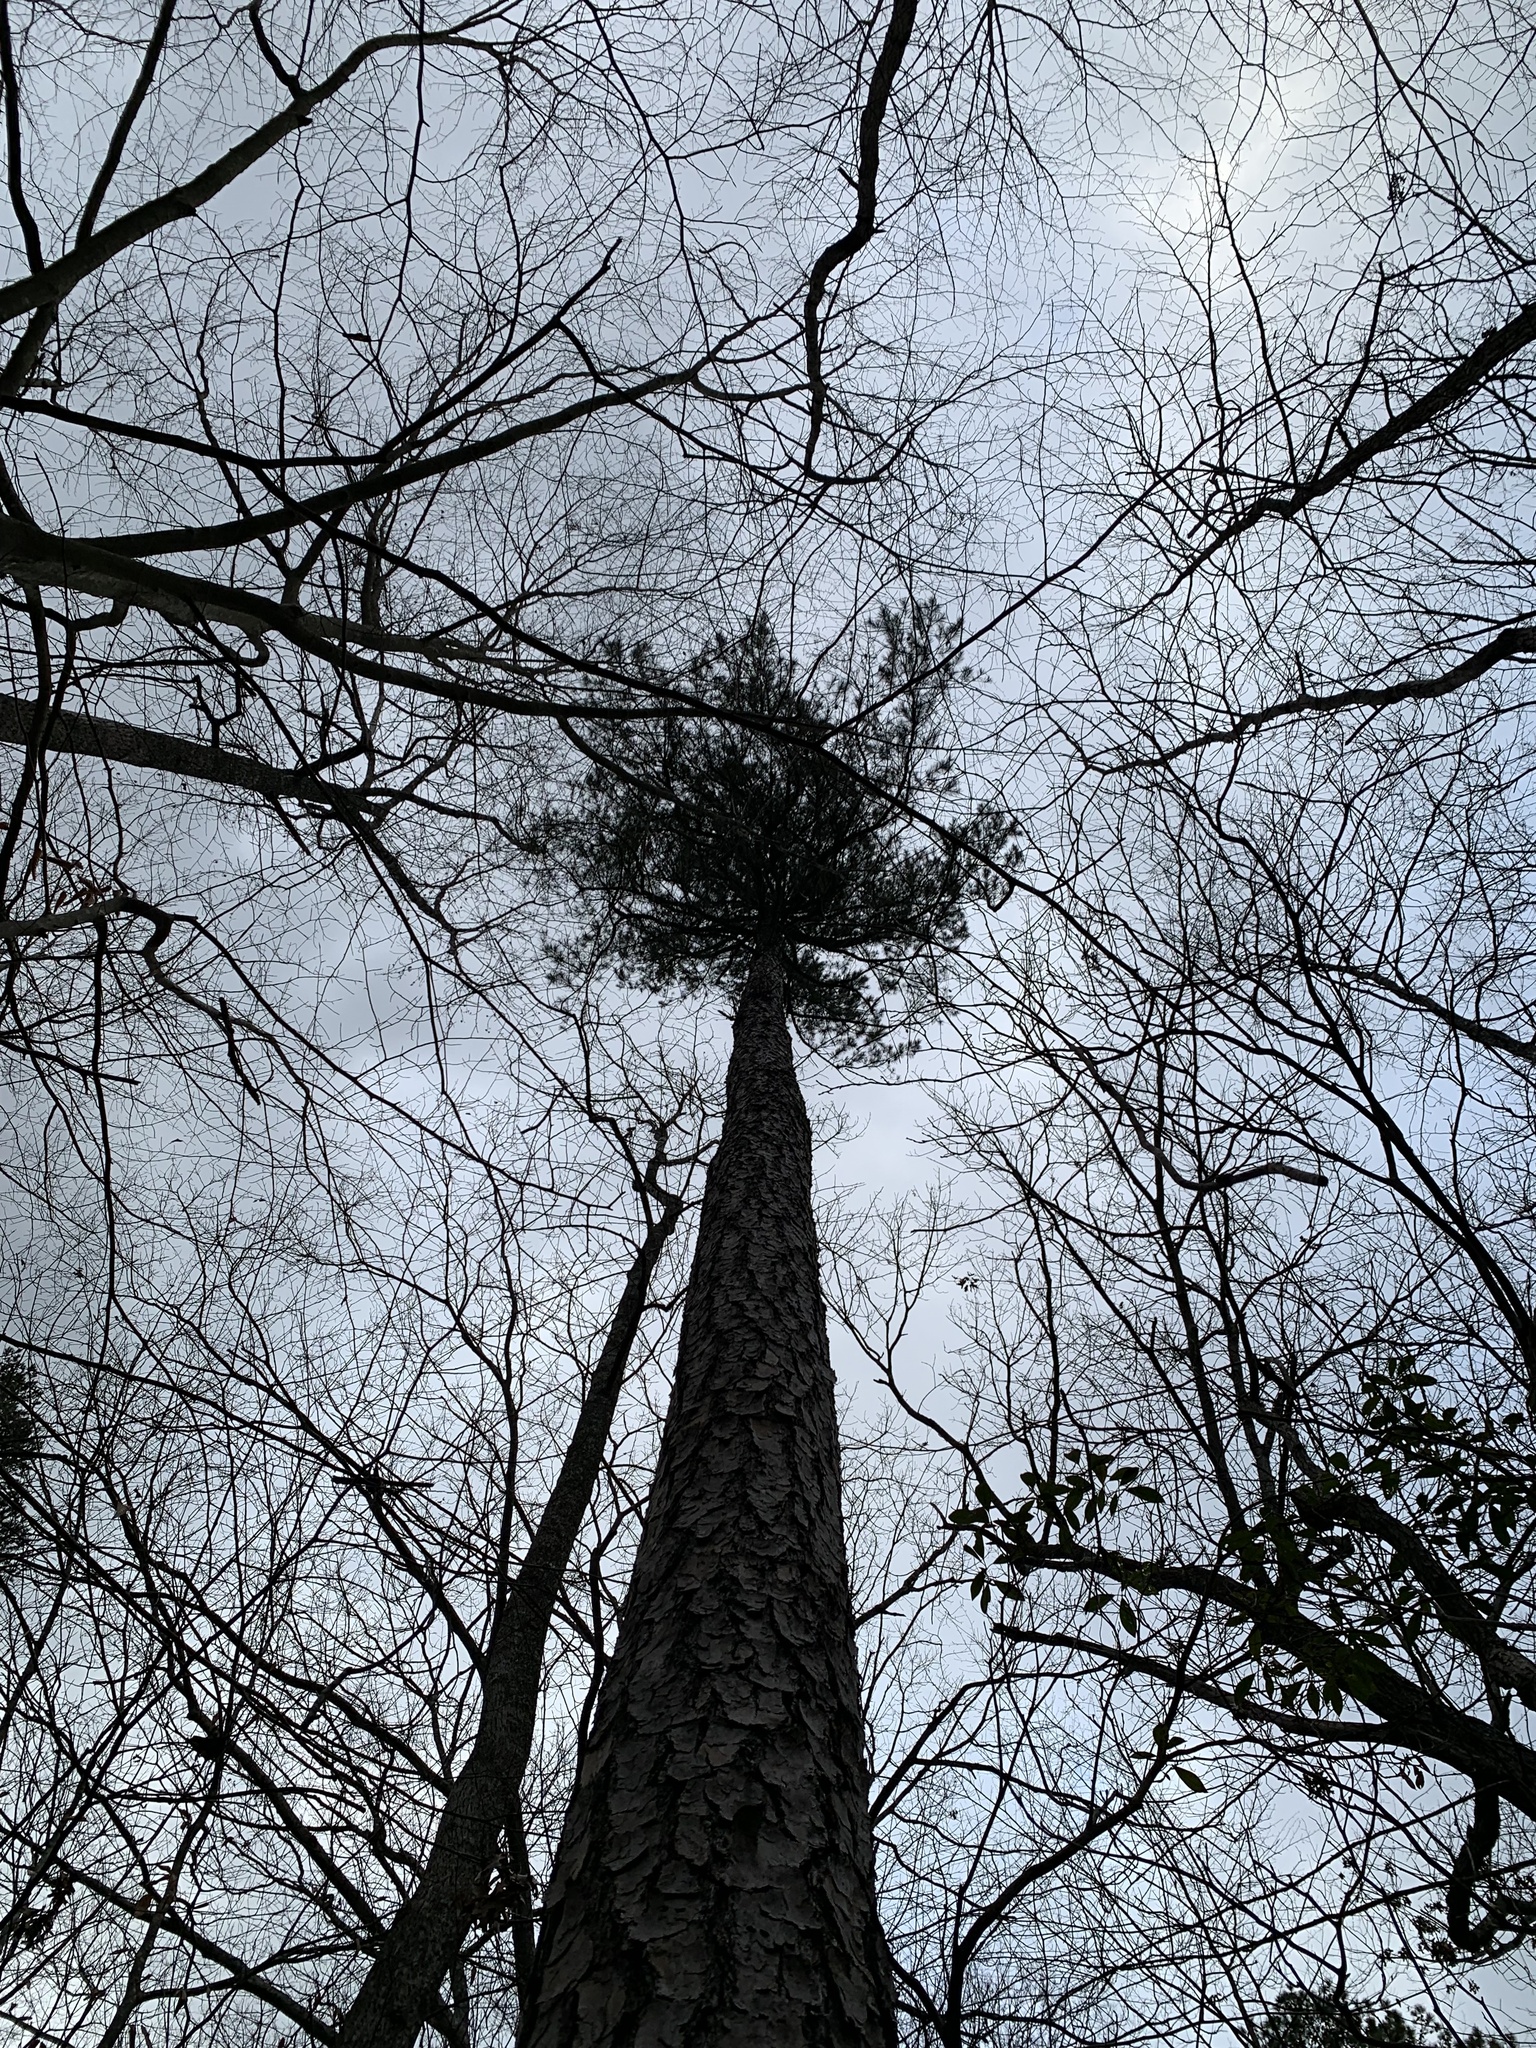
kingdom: Plantae
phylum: Tracheophyta
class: Pinopsida
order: Pinales
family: Pinaceae
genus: Pinus
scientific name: Pinus echinata
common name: Shortleaf pine
